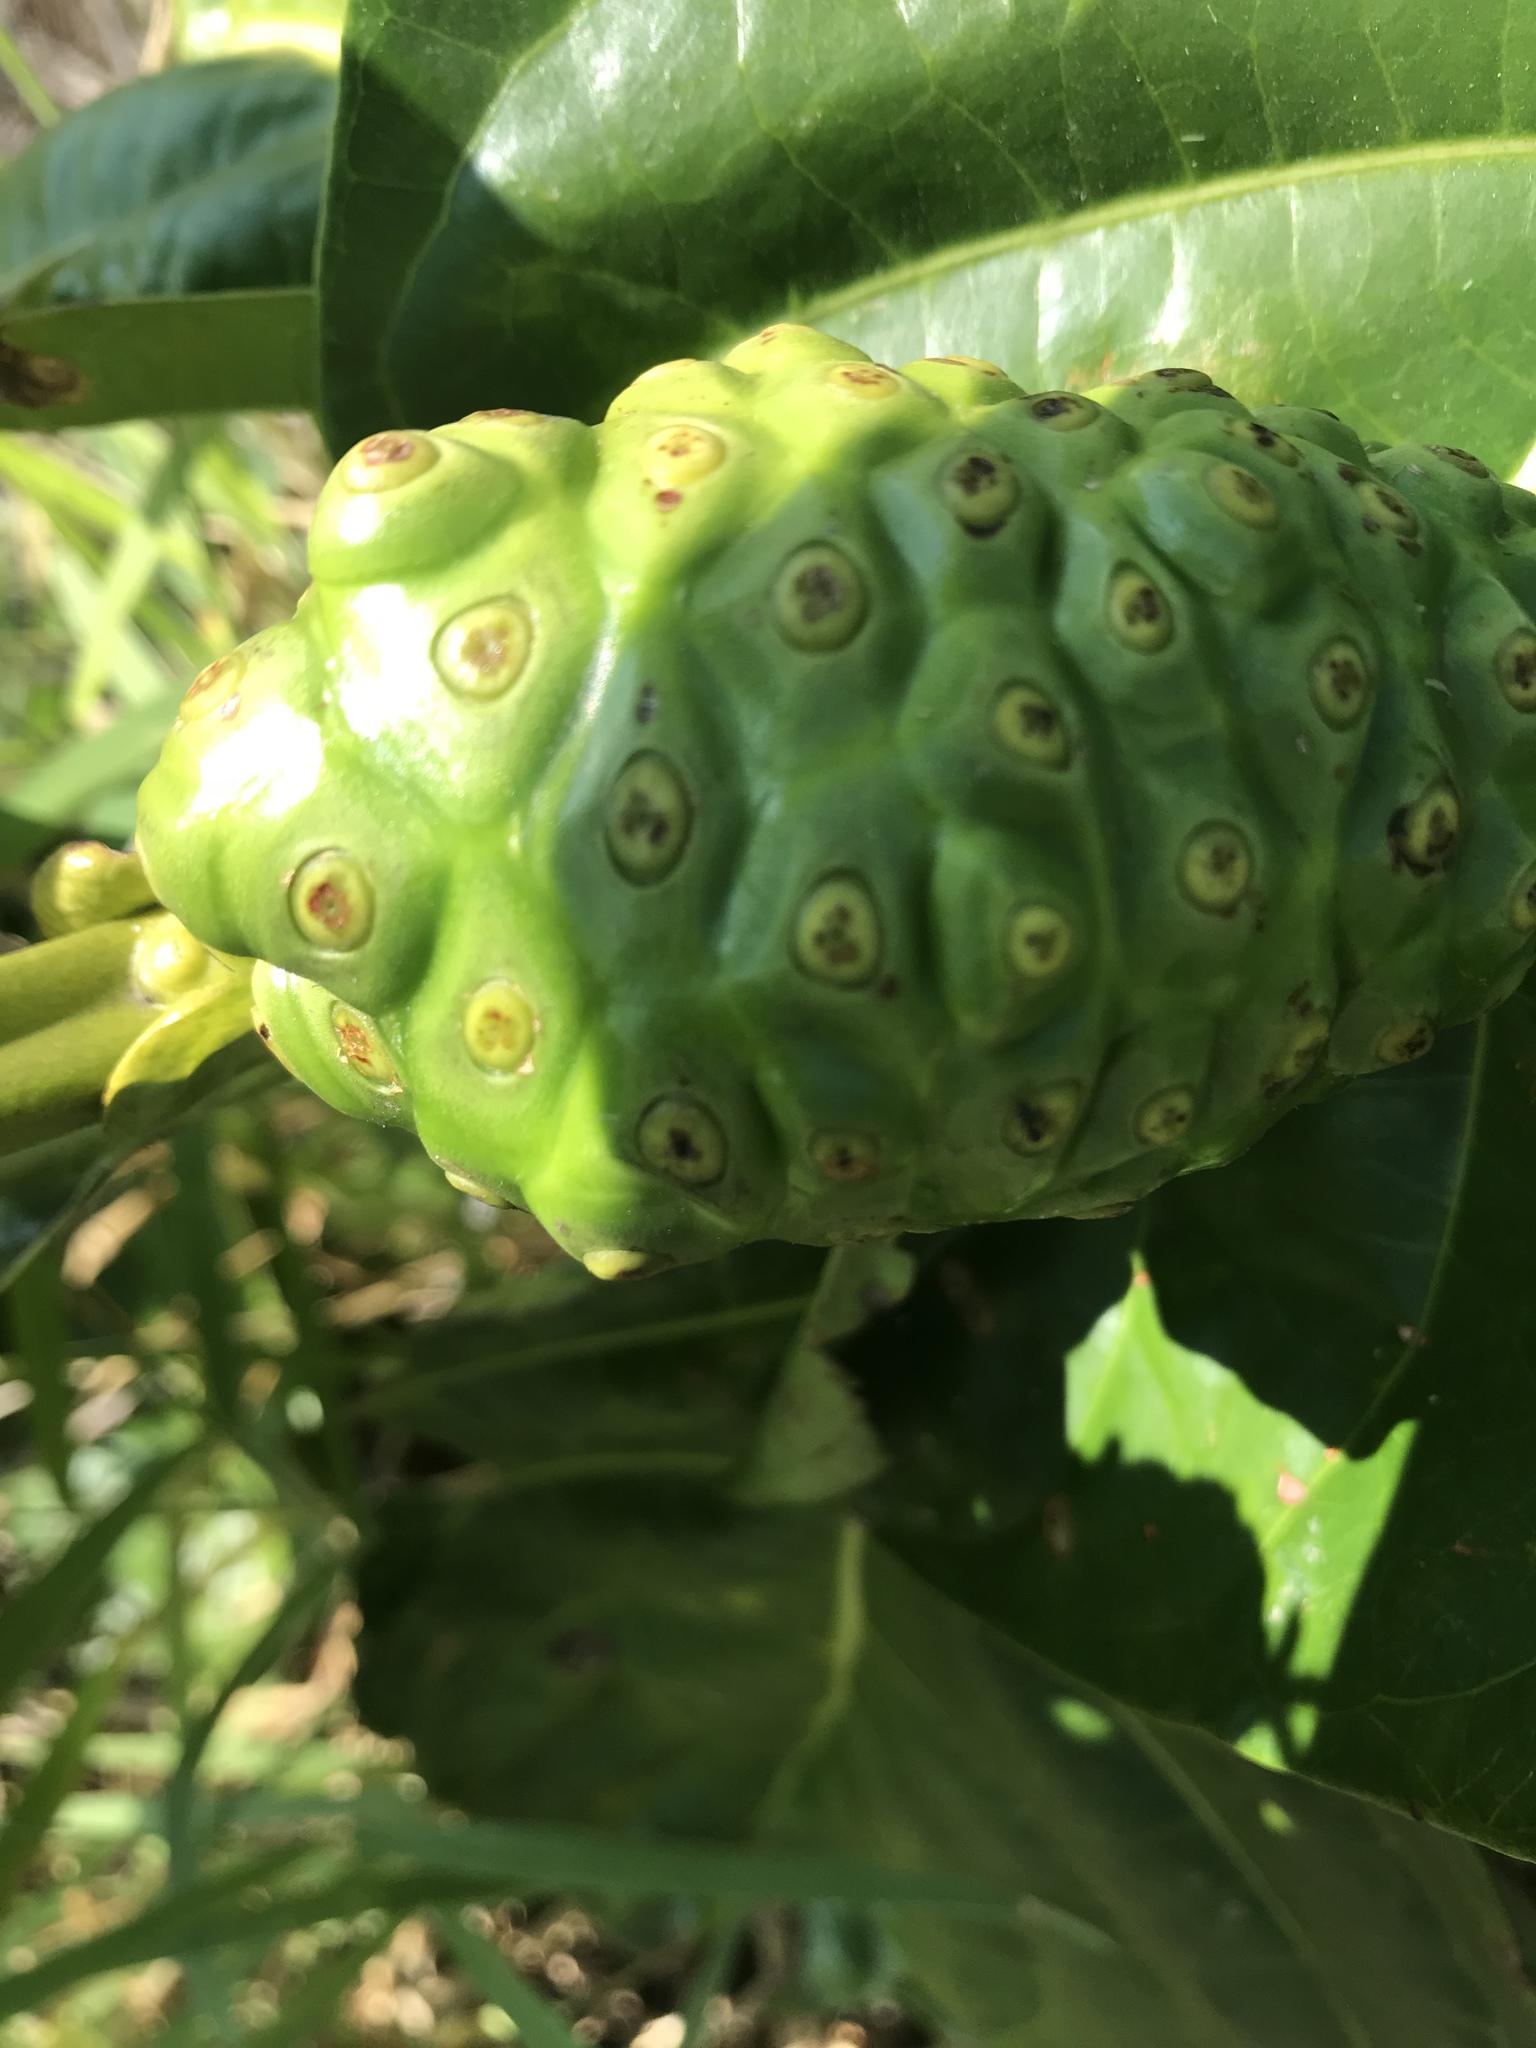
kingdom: Plantae
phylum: Tracheophyta
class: Magnoliopsida
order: Gentianales
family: Rubiaceae
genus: Morinda
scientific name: Morinda citrifolia
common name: Indian-mulberry
